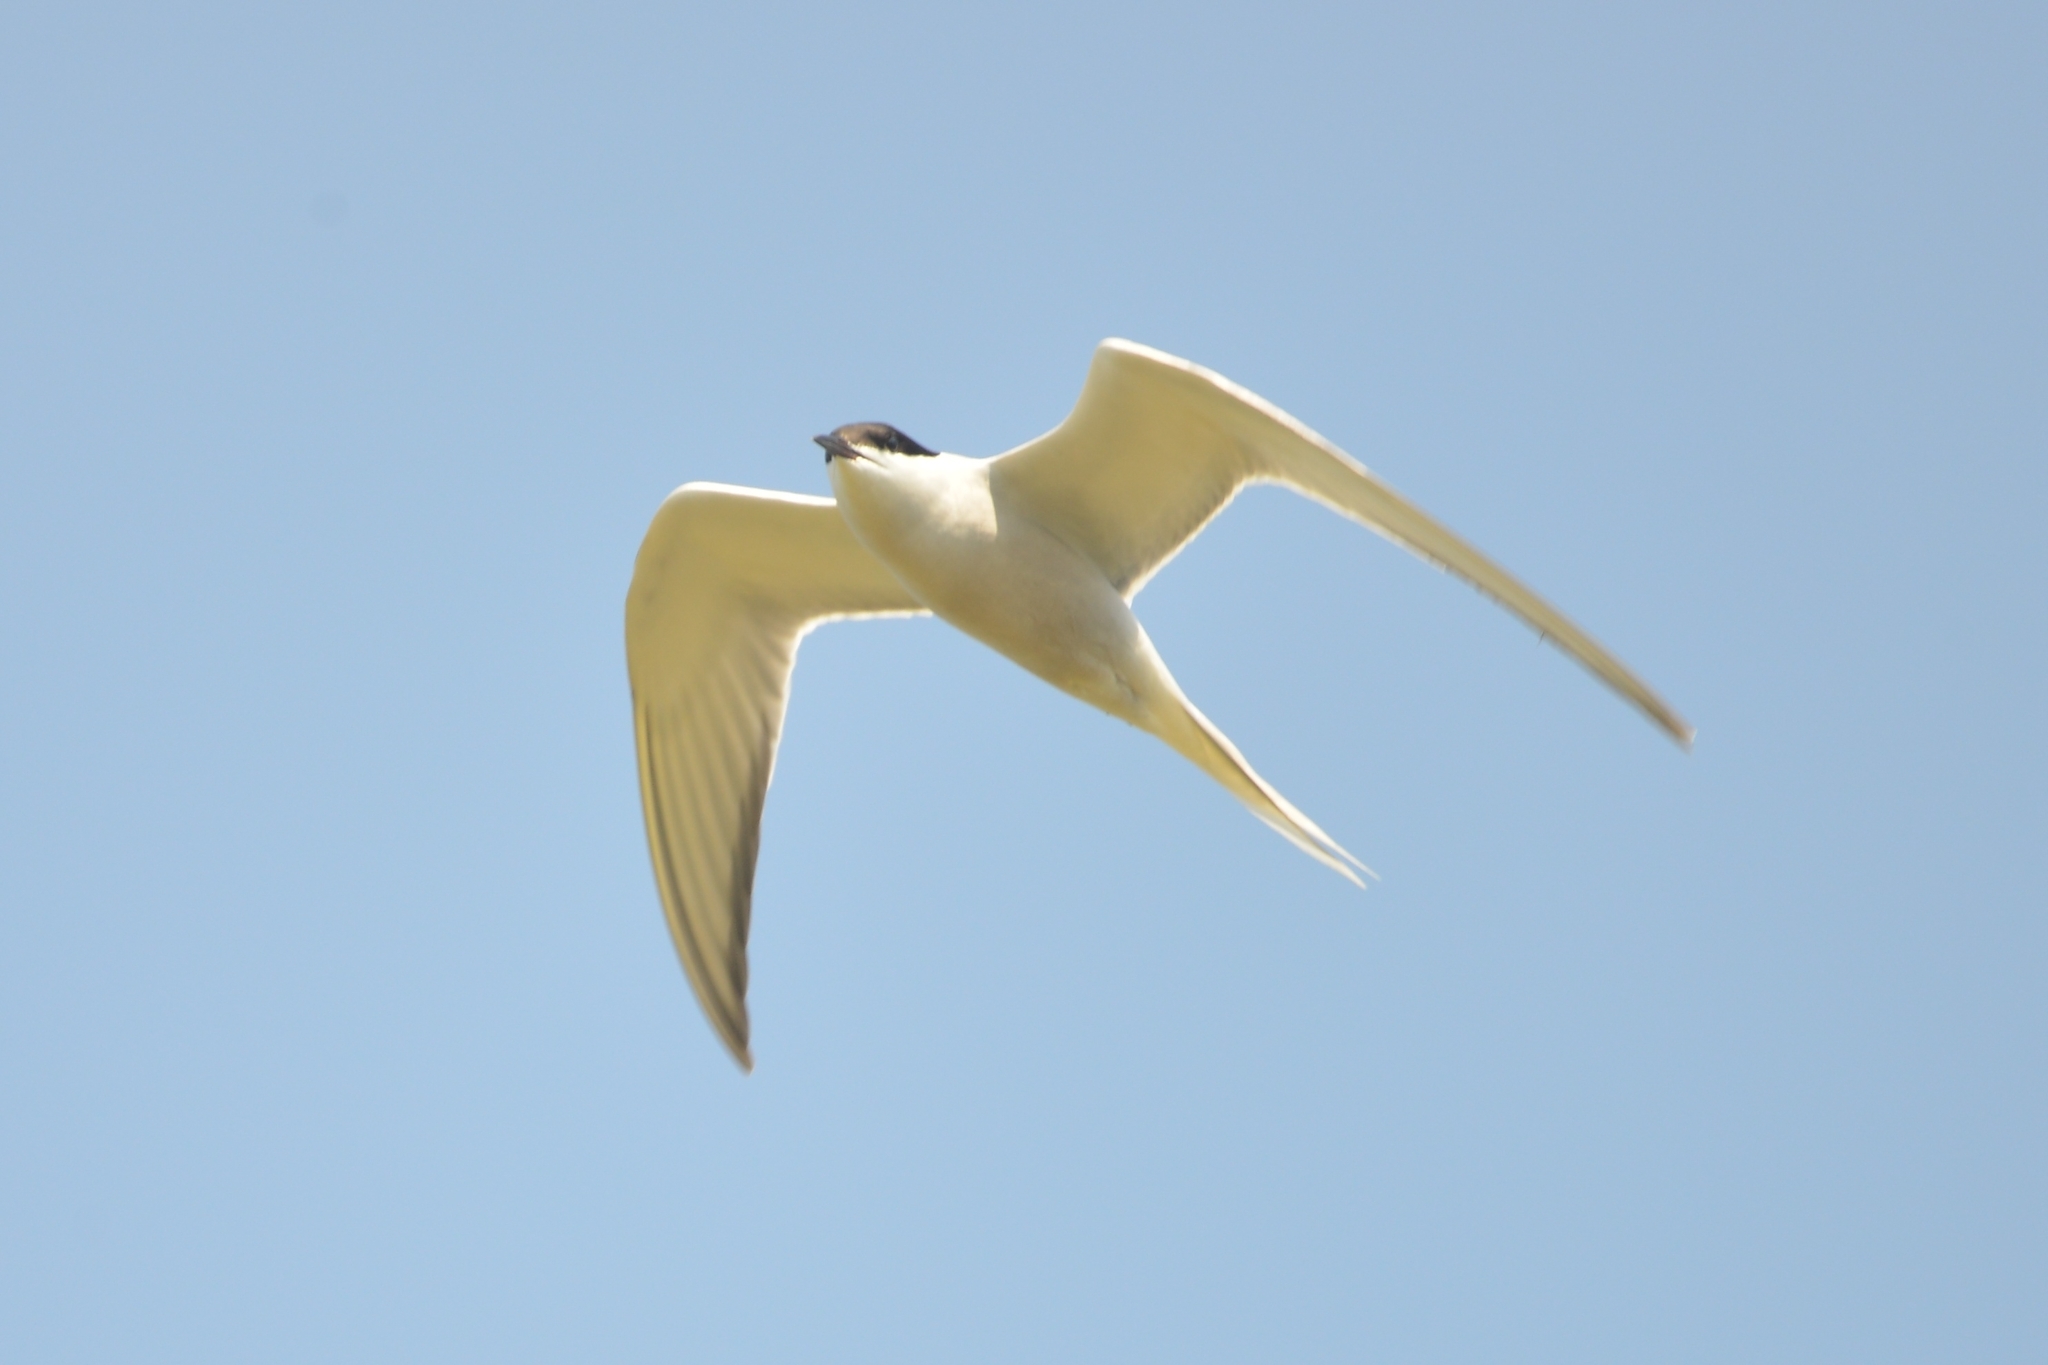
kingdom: Animalia
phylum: Chordata
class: Aves
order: Charadriiformes
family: Laridae
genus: Sterna
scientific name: Sterna hirundo
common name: Common tern
